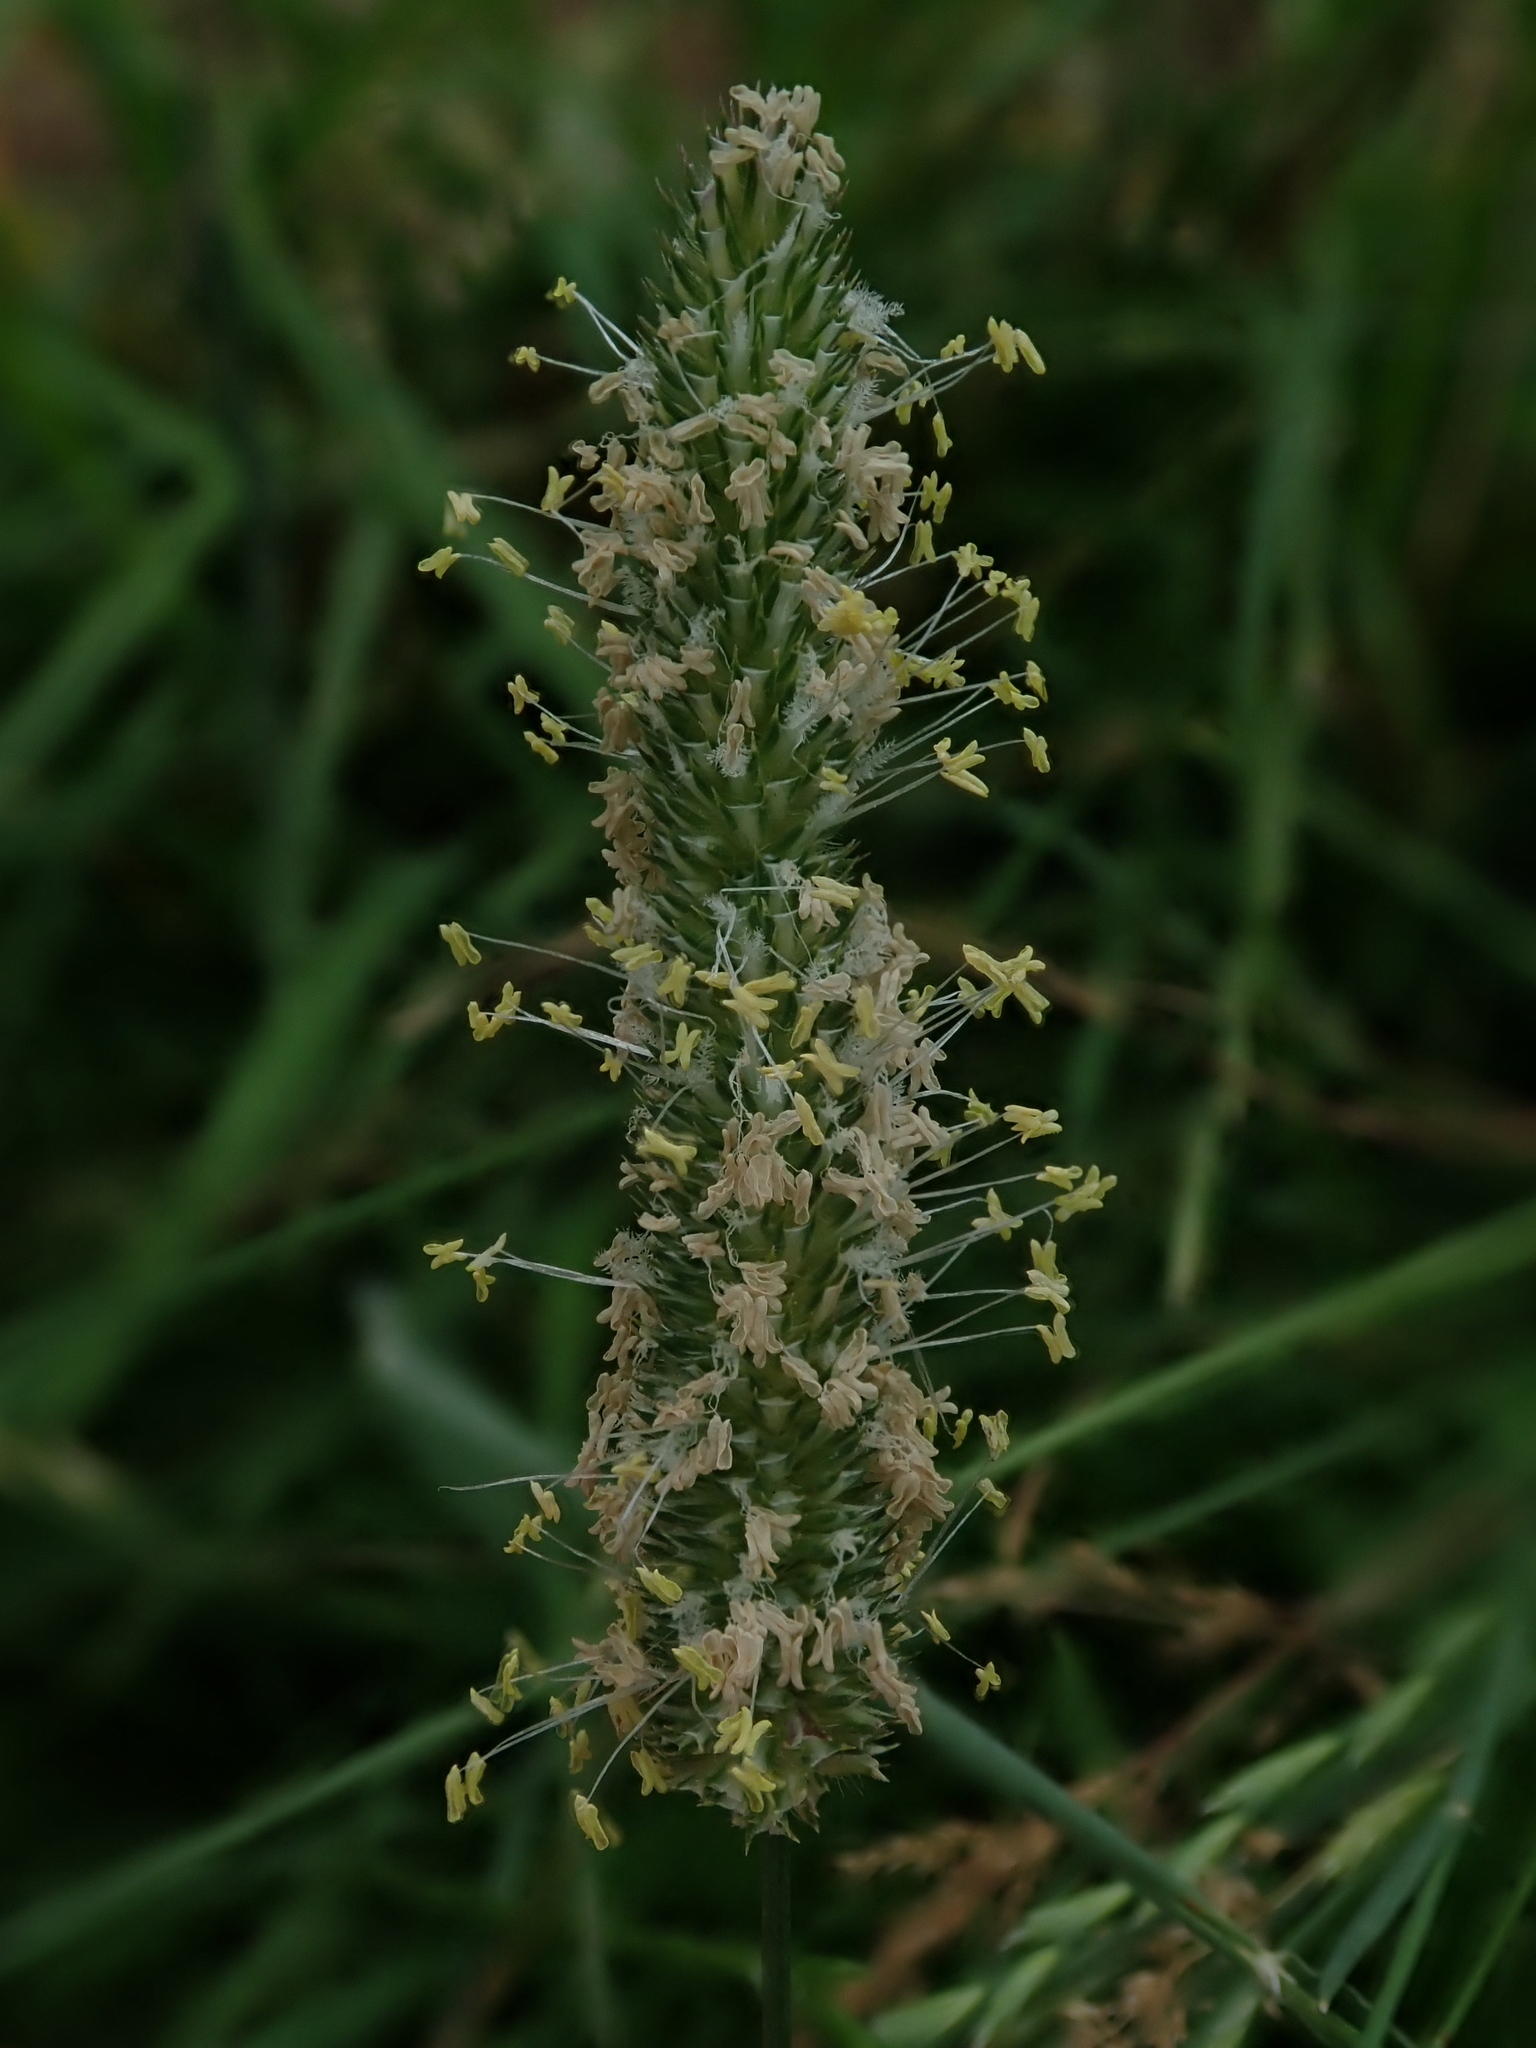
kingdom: Plantae
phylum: Tracheophyta
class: Liliopsida
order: Poales
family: Poaceae
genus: Phleum
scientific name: Phleum pratense
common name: Timothy grass
